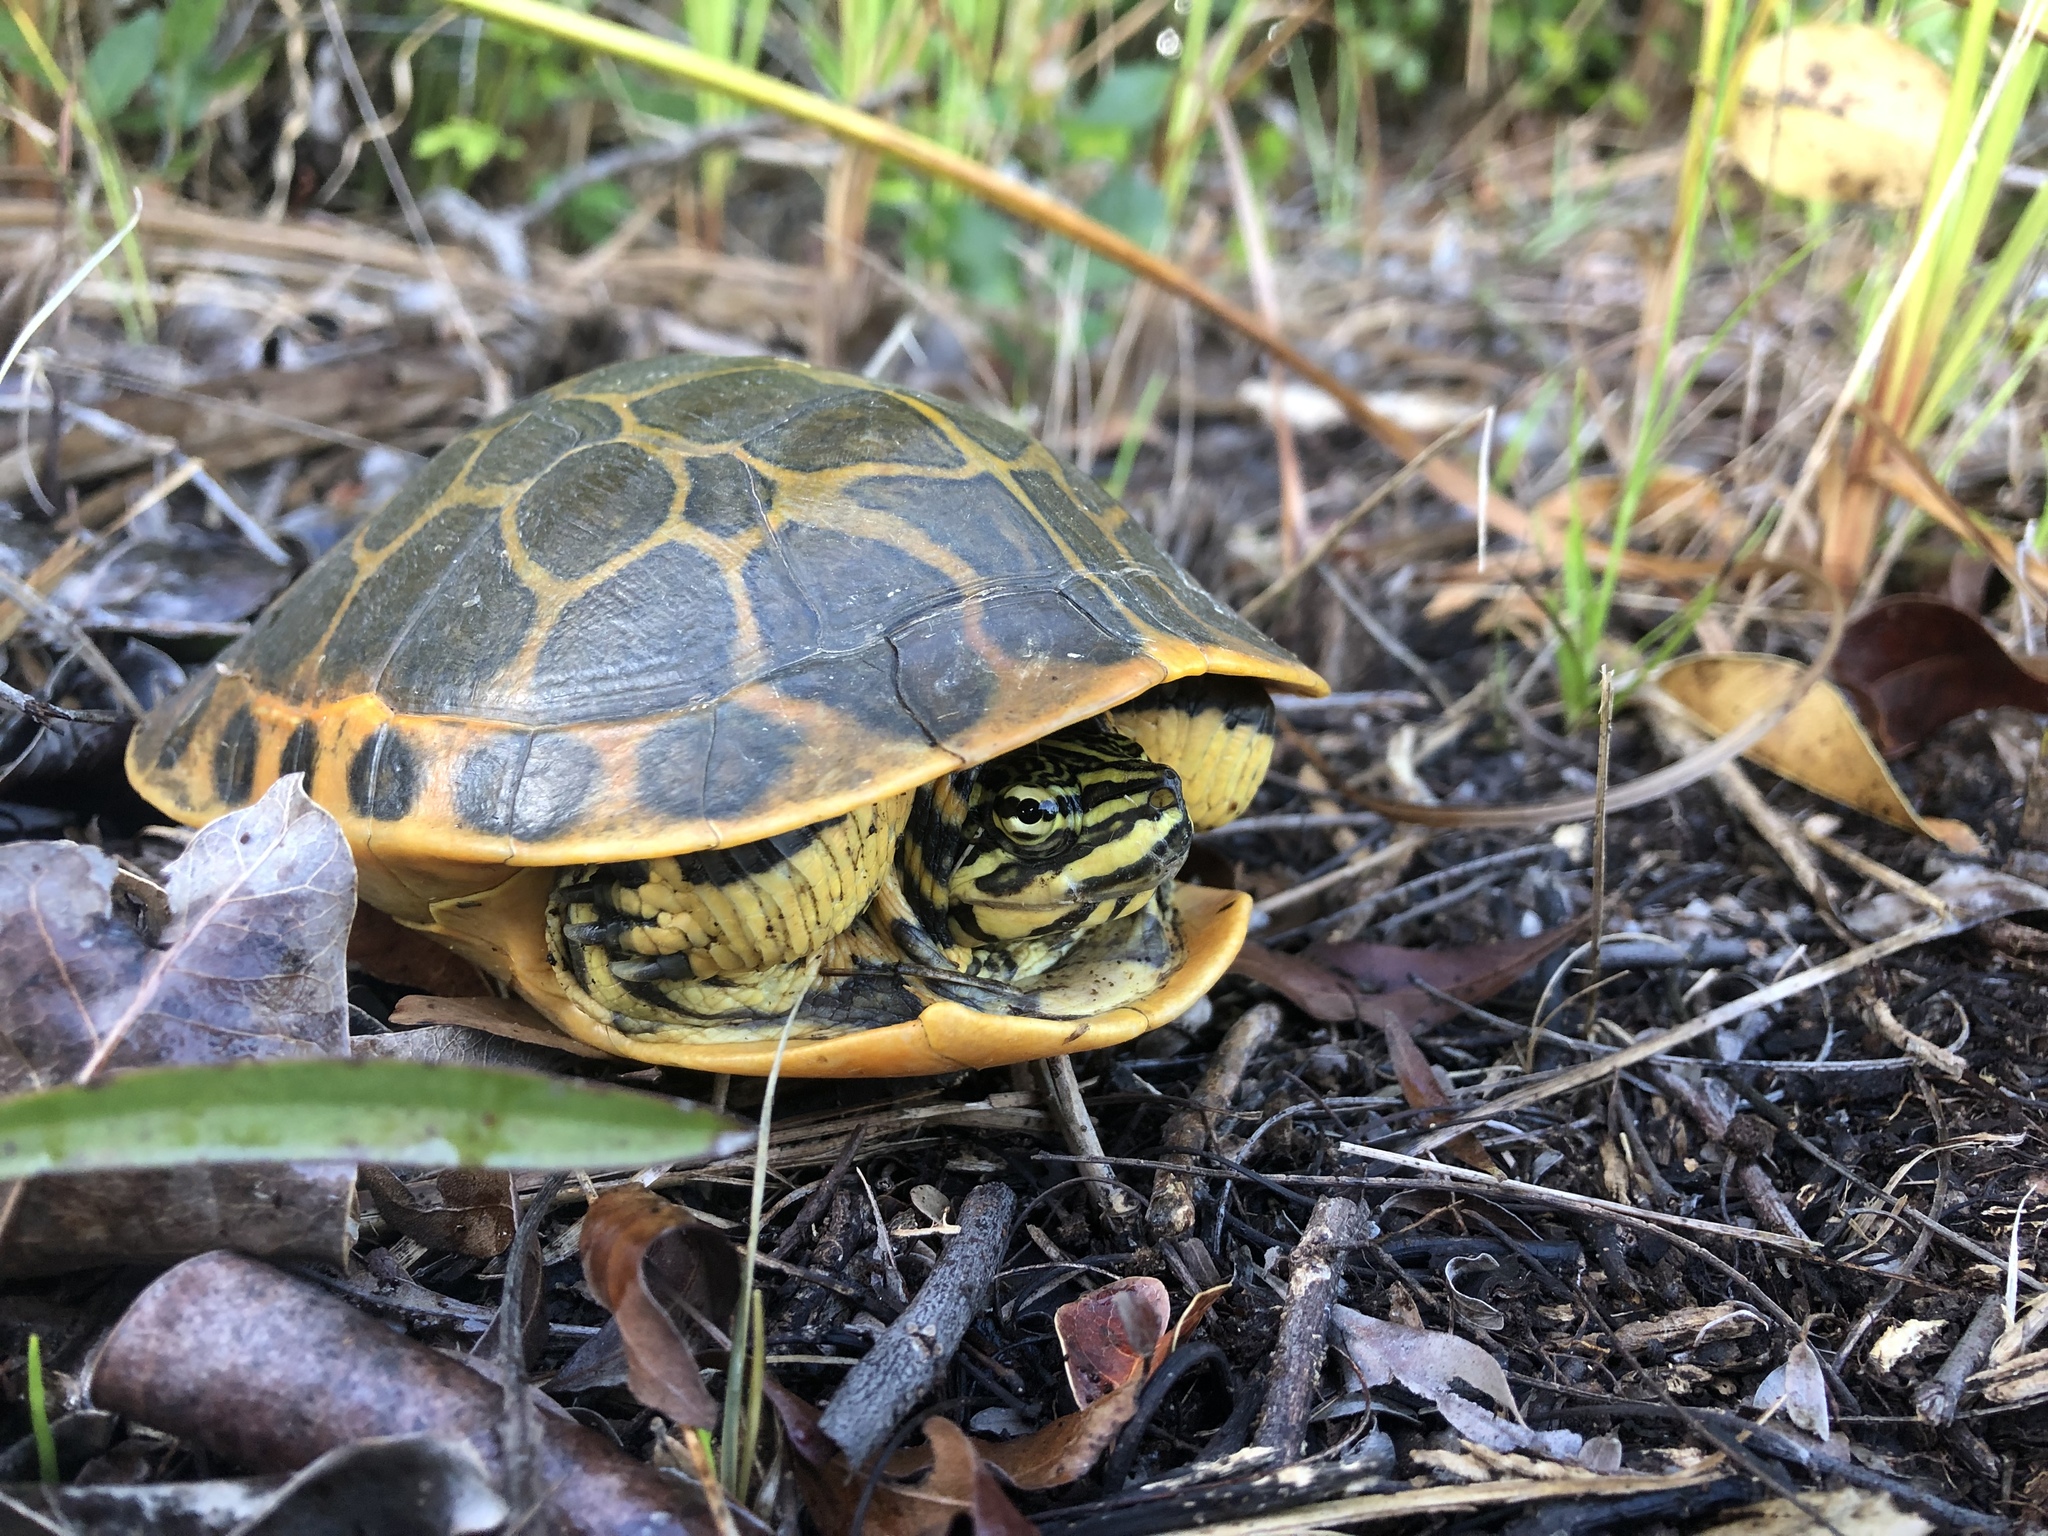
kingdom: Animalia
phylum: Chordata
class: Testudines
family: Emydidae
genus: Deirochelys
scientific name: Deirochelys reticularia
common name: Chicken turtle
